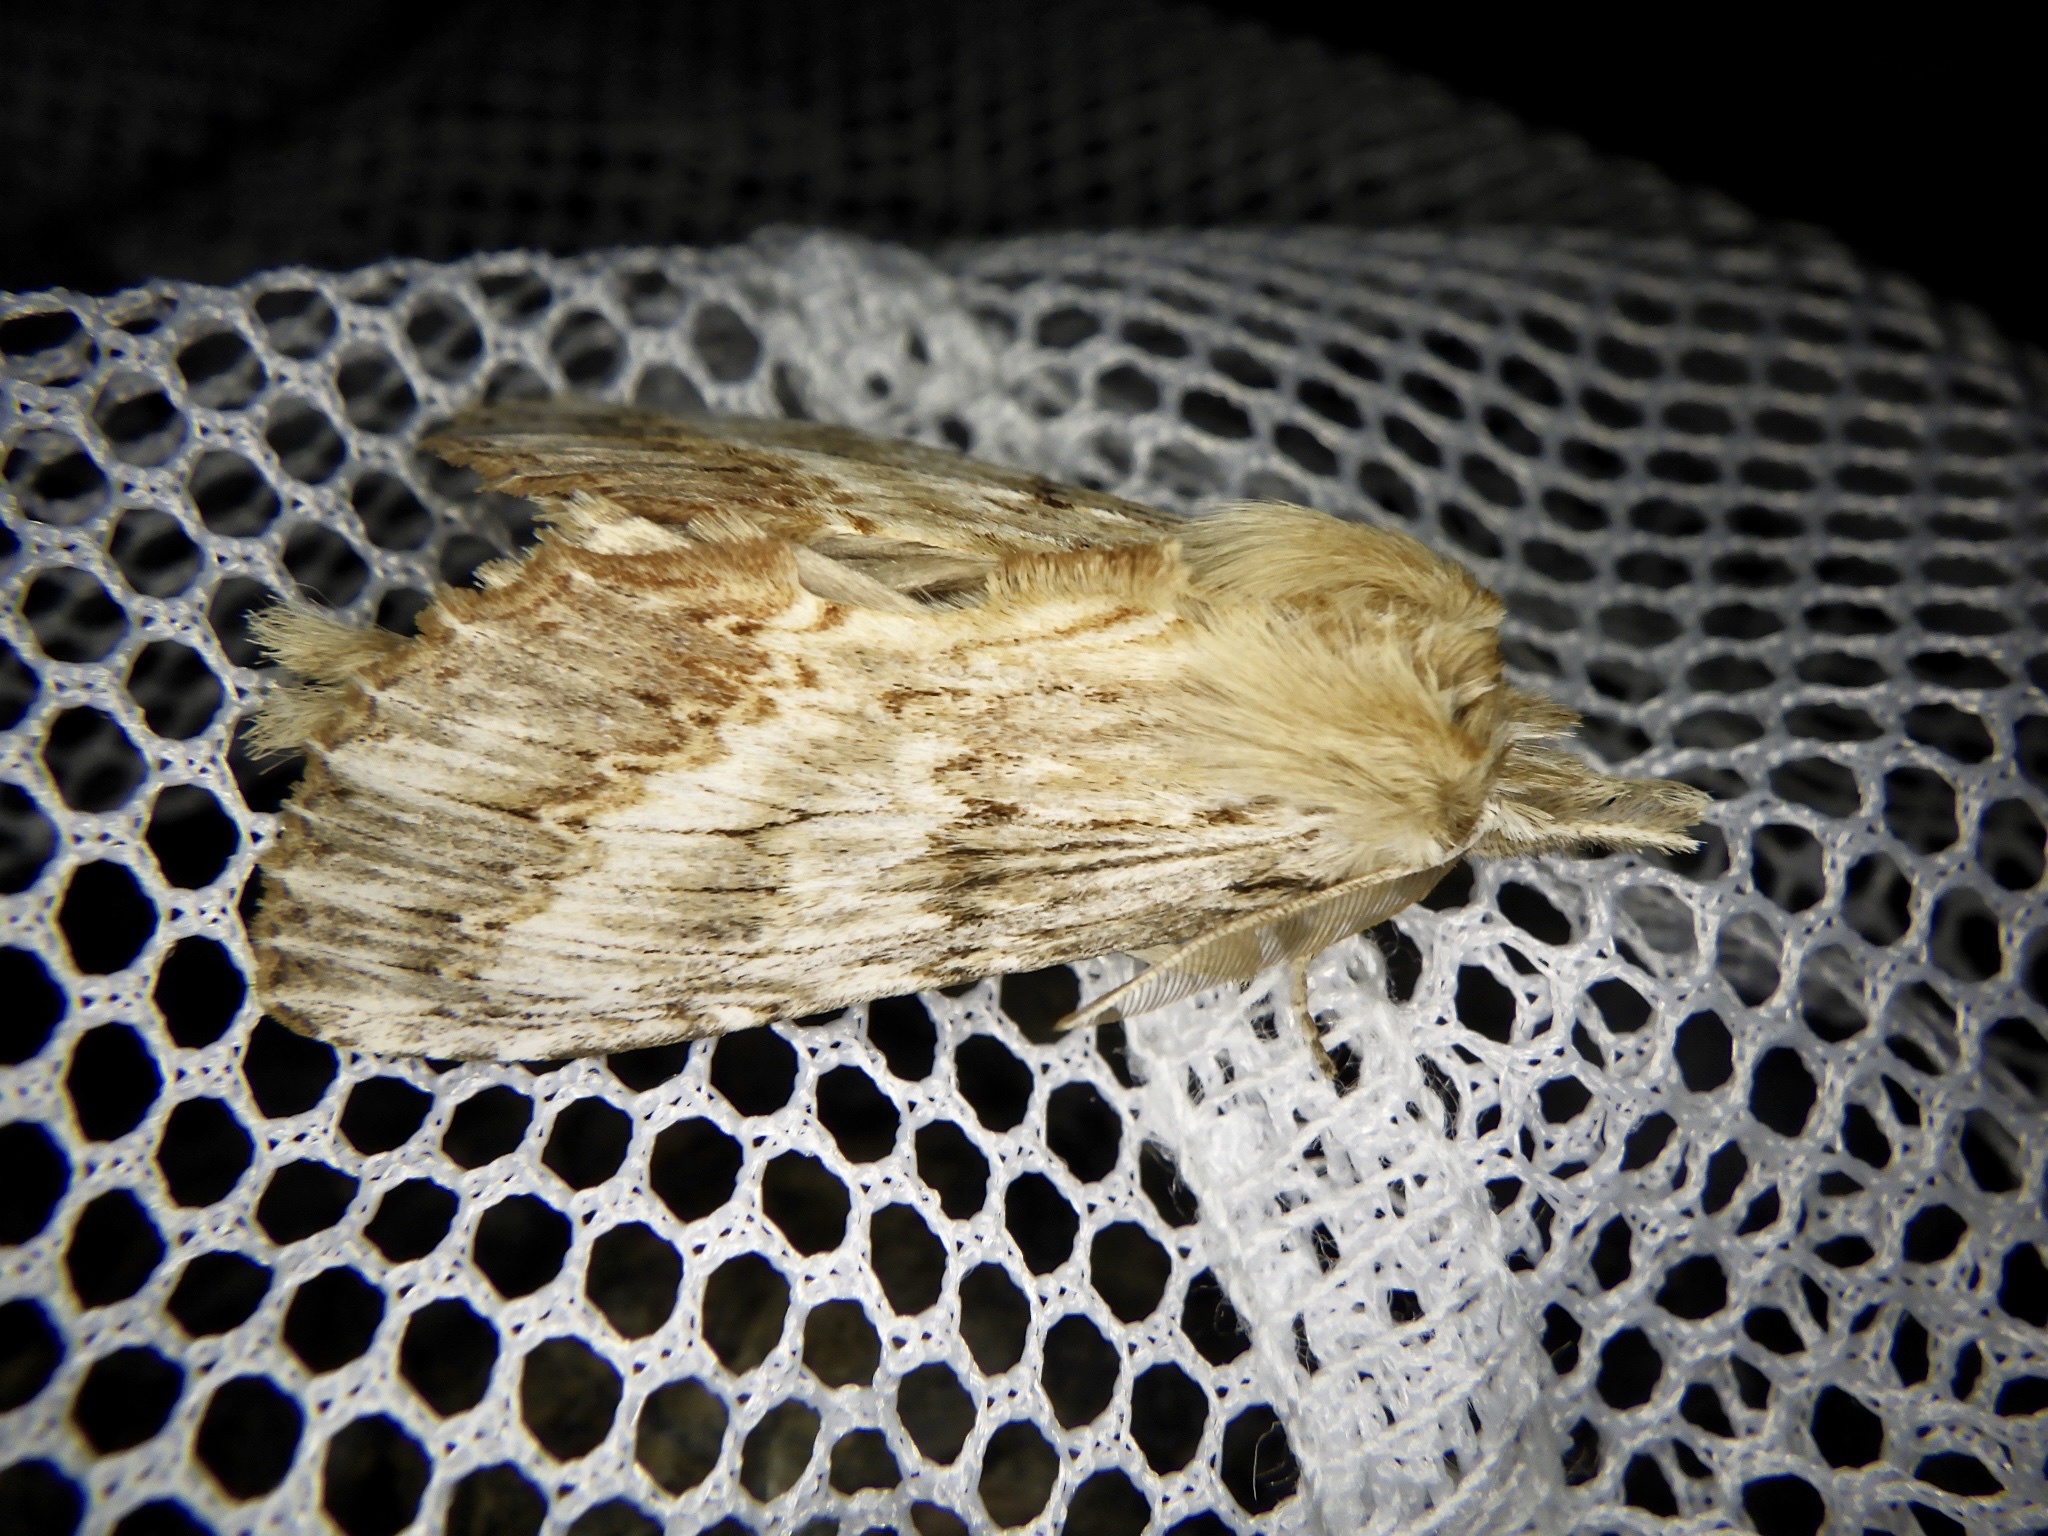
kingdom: Animalia
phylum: Arthropoda
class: Insecta
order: Lepidoptera
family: Notodontidae
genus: Pterostoma
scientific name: Pterostoma gigantina
